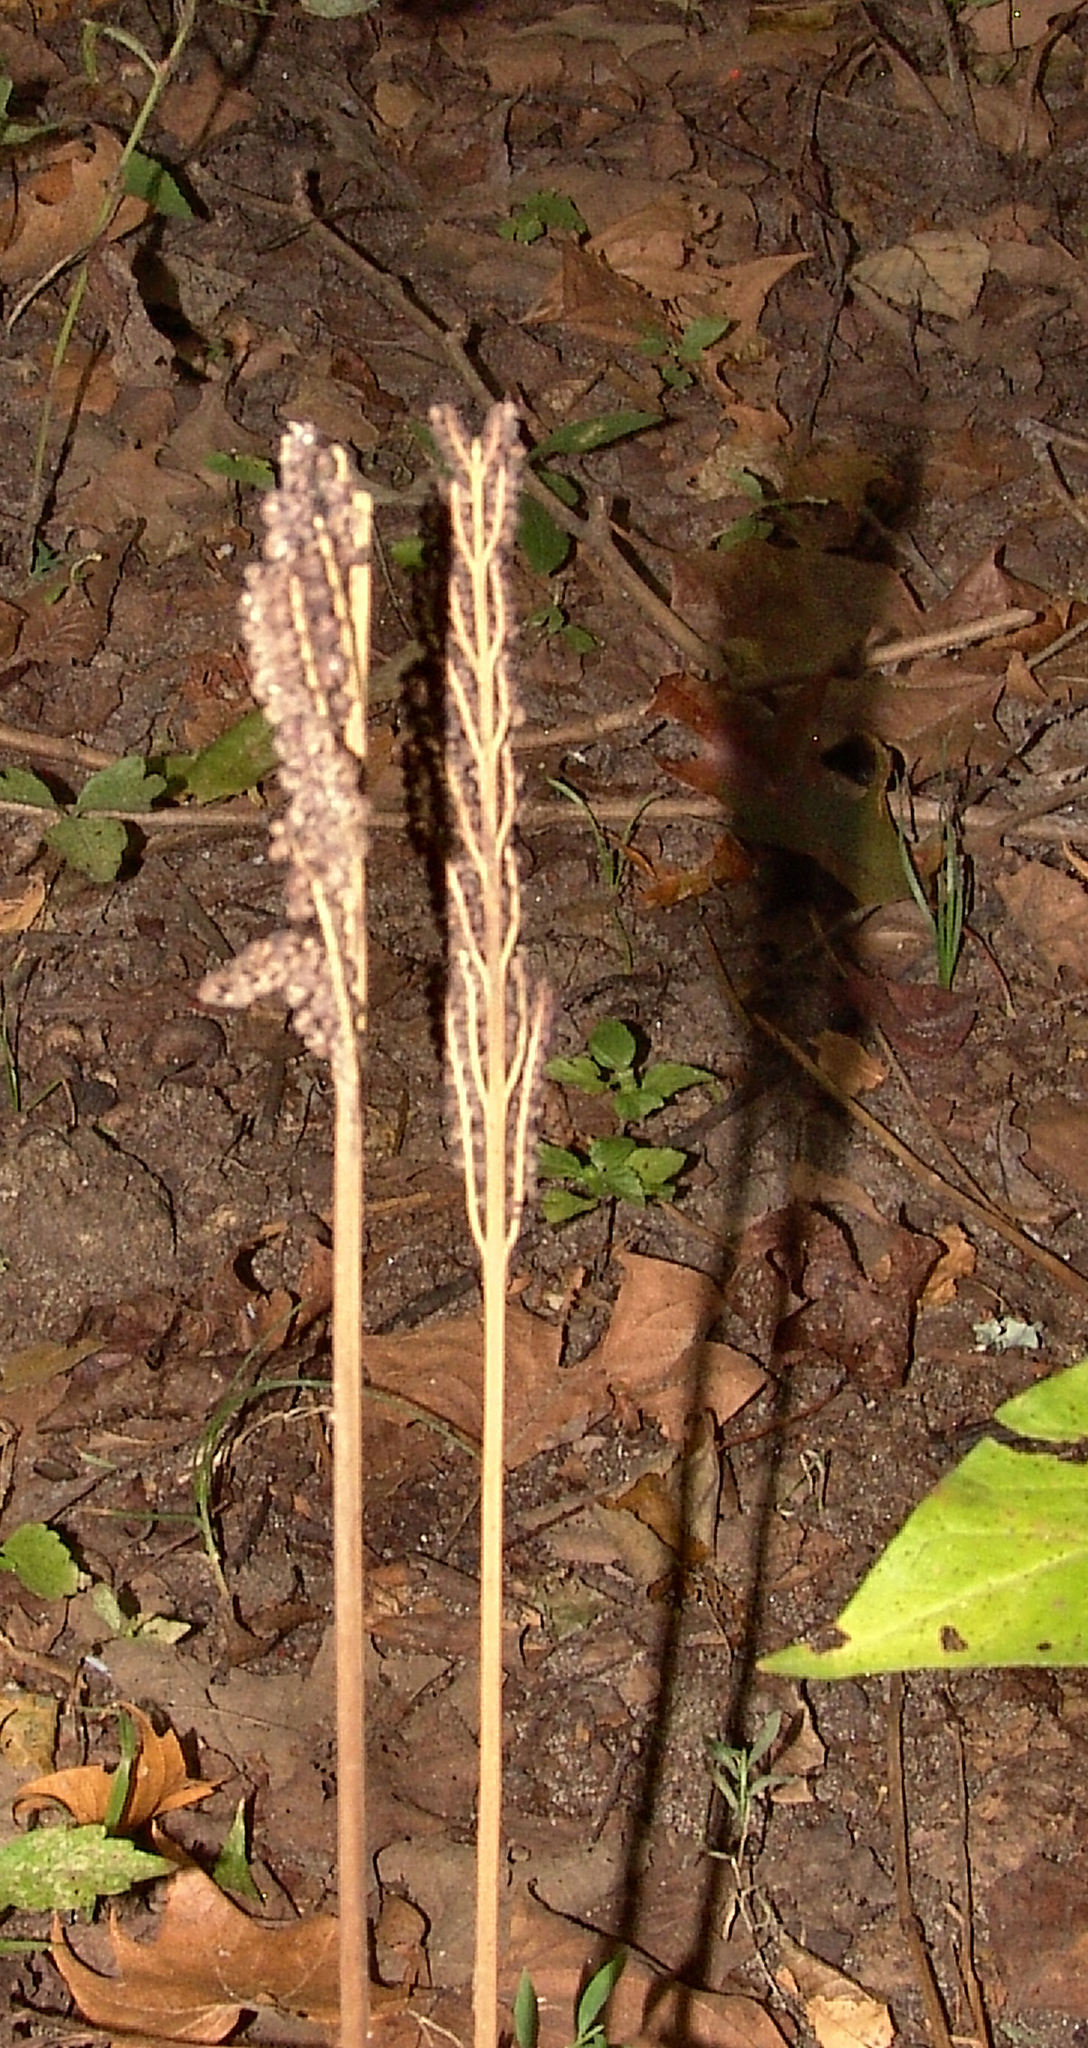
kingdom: Plantae
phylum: Tracheophyta
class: Polypodiopsida
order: Polypodiales
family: Onocleaceae
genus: Onoclea
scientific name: Onoclea sensibilis
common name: Sensitive fern
